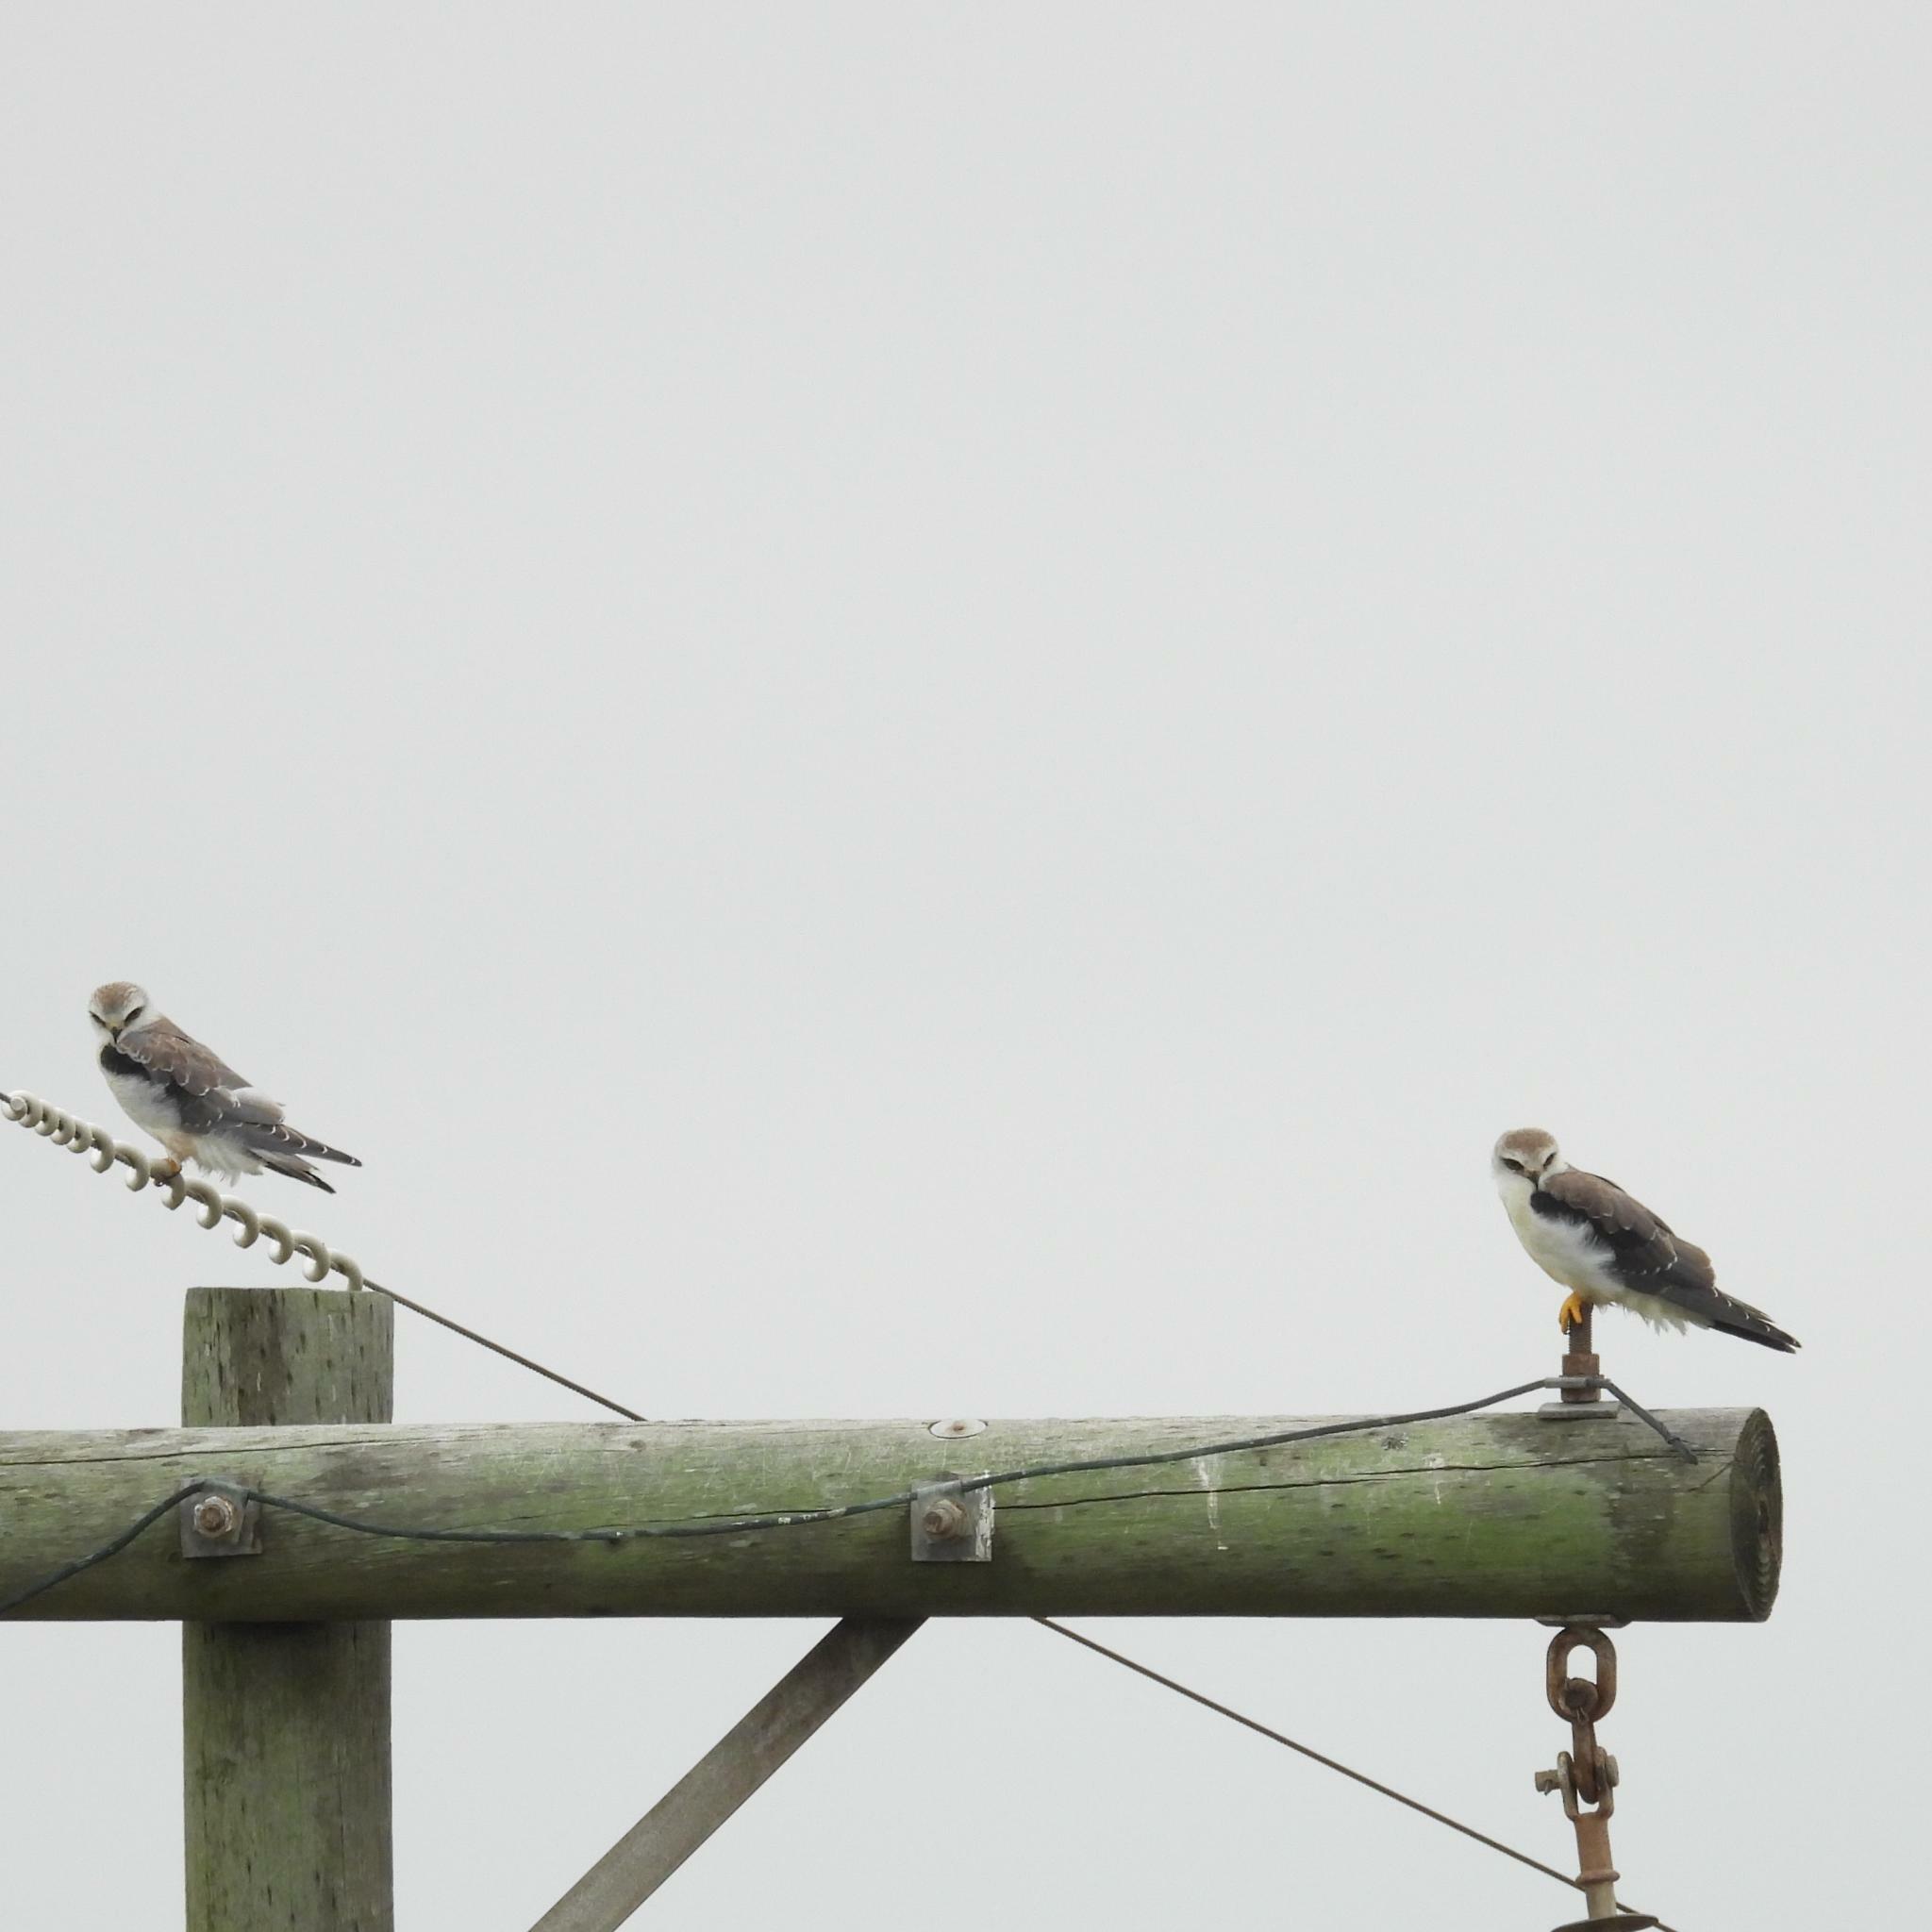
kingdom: Animalia
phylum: Chordata
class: Aves
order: Accipitriformes
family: Accipitridae
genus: Elanus
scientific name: Elanus caeruleus
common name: Black-winged kite
